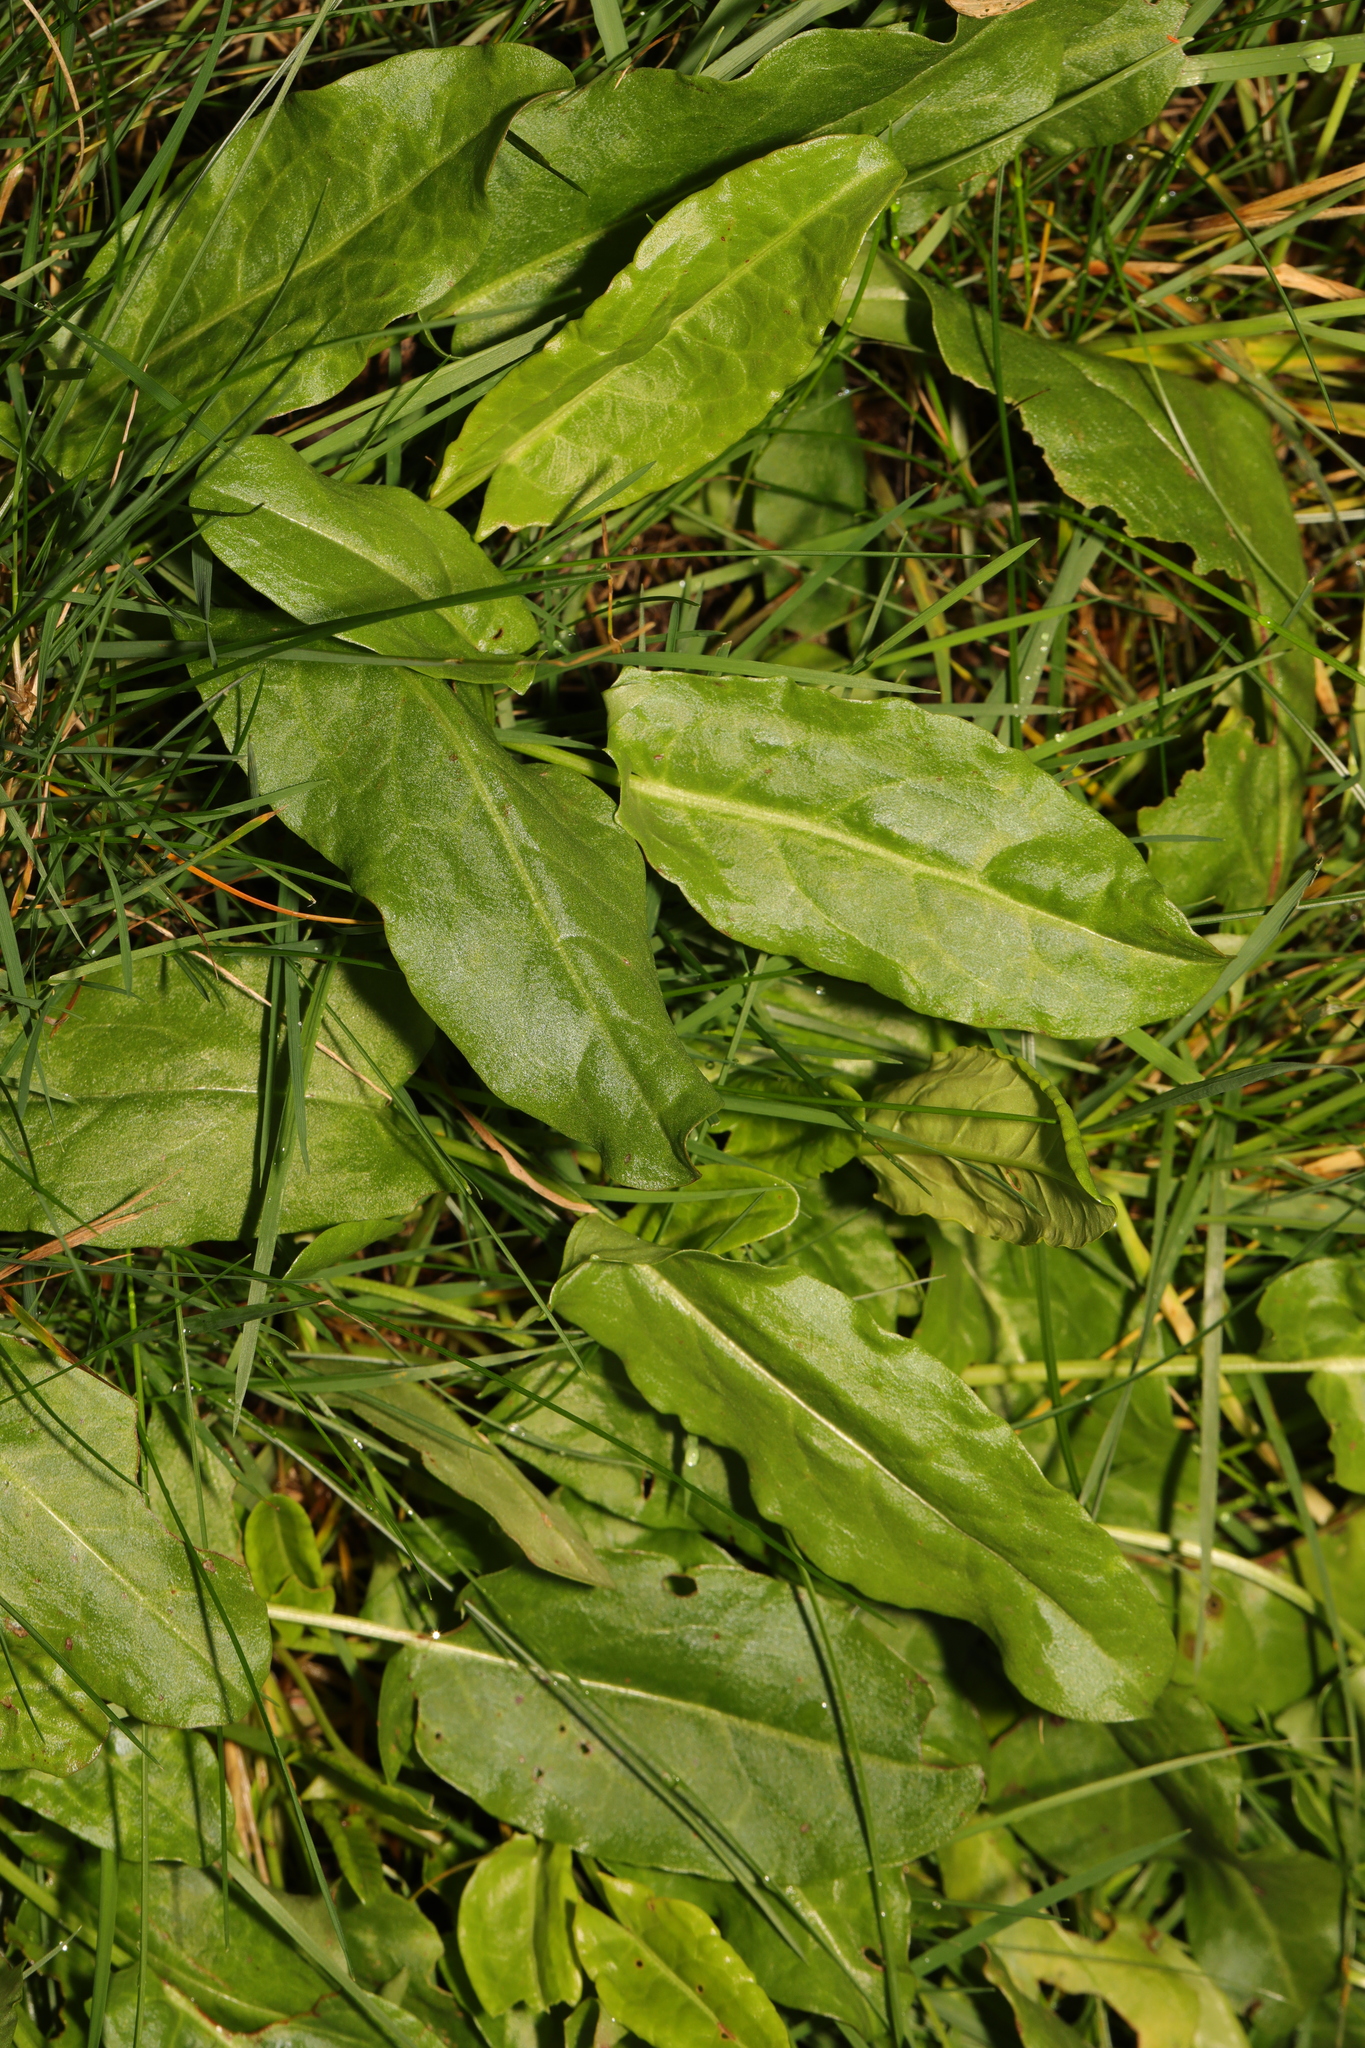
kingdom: Plantae
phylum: Tracheophyta
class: Magnoliopsida
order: Caryophyllales
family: Polygonaceae
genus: Rumex
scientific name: Rumex acetosa
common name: Garden sorrel
